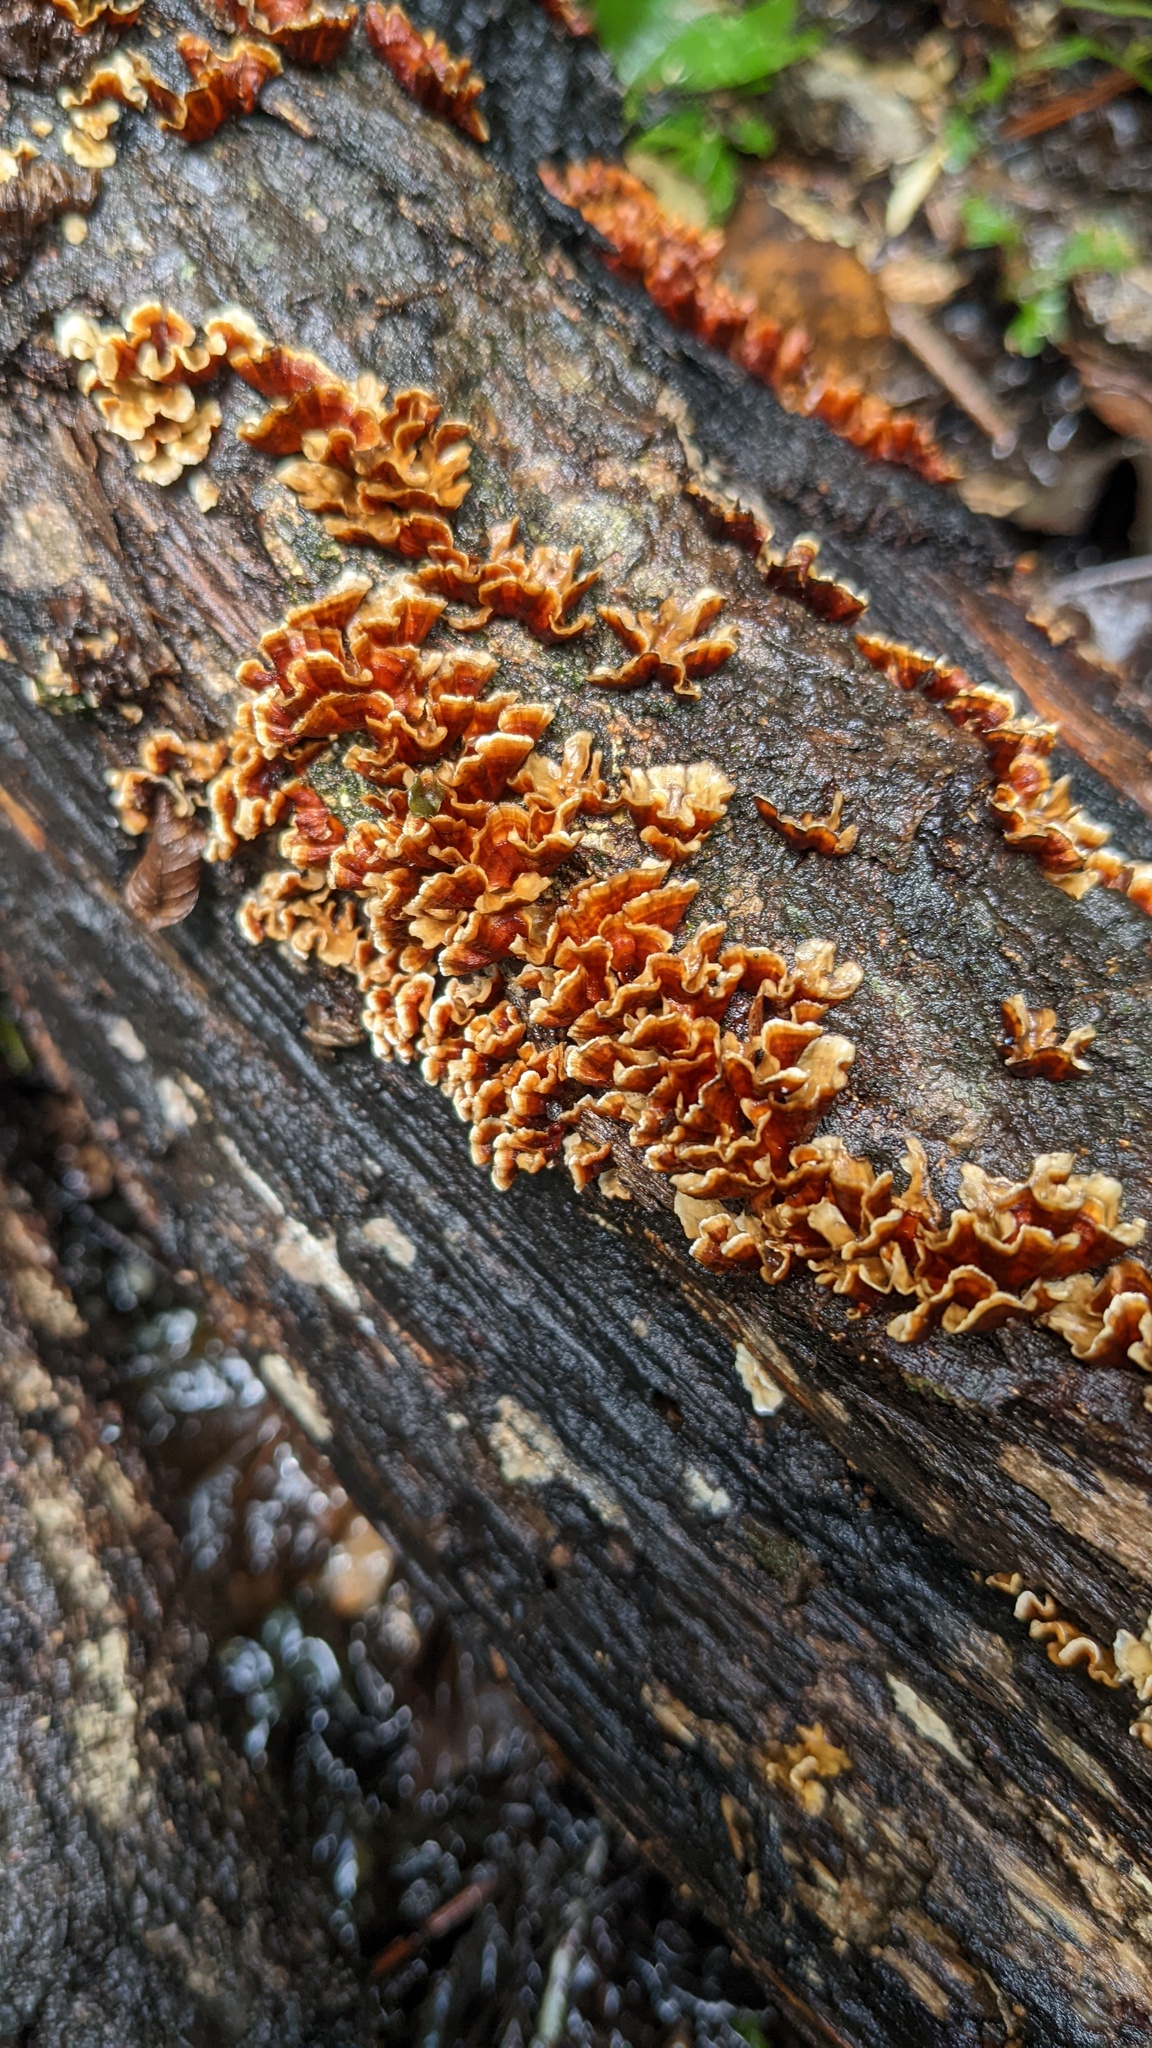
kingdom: Fungi
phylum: Basidiomycota
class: Agaricomycetes
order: Russulales
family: Stereaceae
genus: Xylobolus
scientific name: Xylobolus spectabilis
